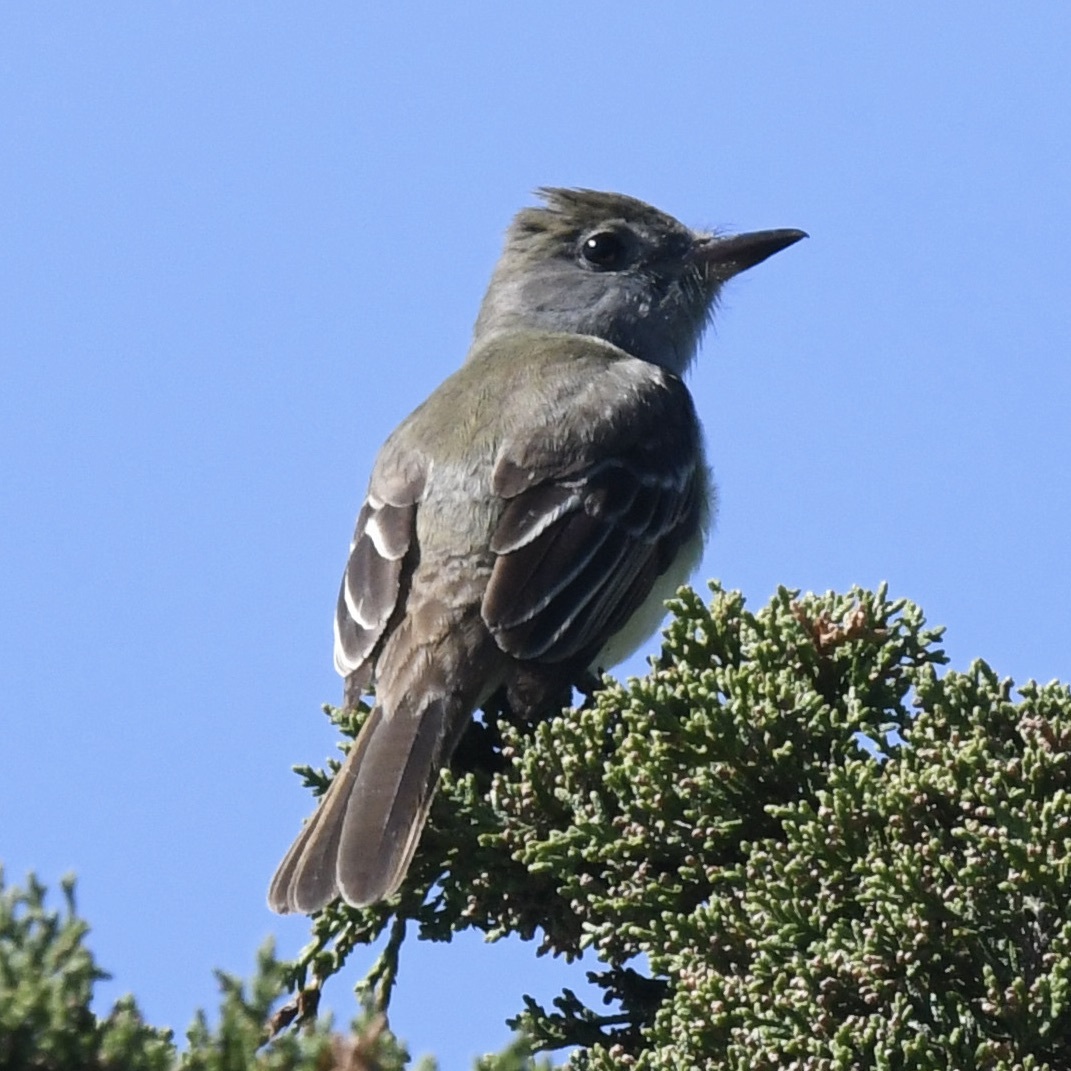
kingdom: Animalia
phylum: Chordata
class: Aves
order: Passeriformes
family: Tyrannidae
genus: Myiarchus
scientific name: Myiarchus crinitus
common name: Great crested flycatcher
